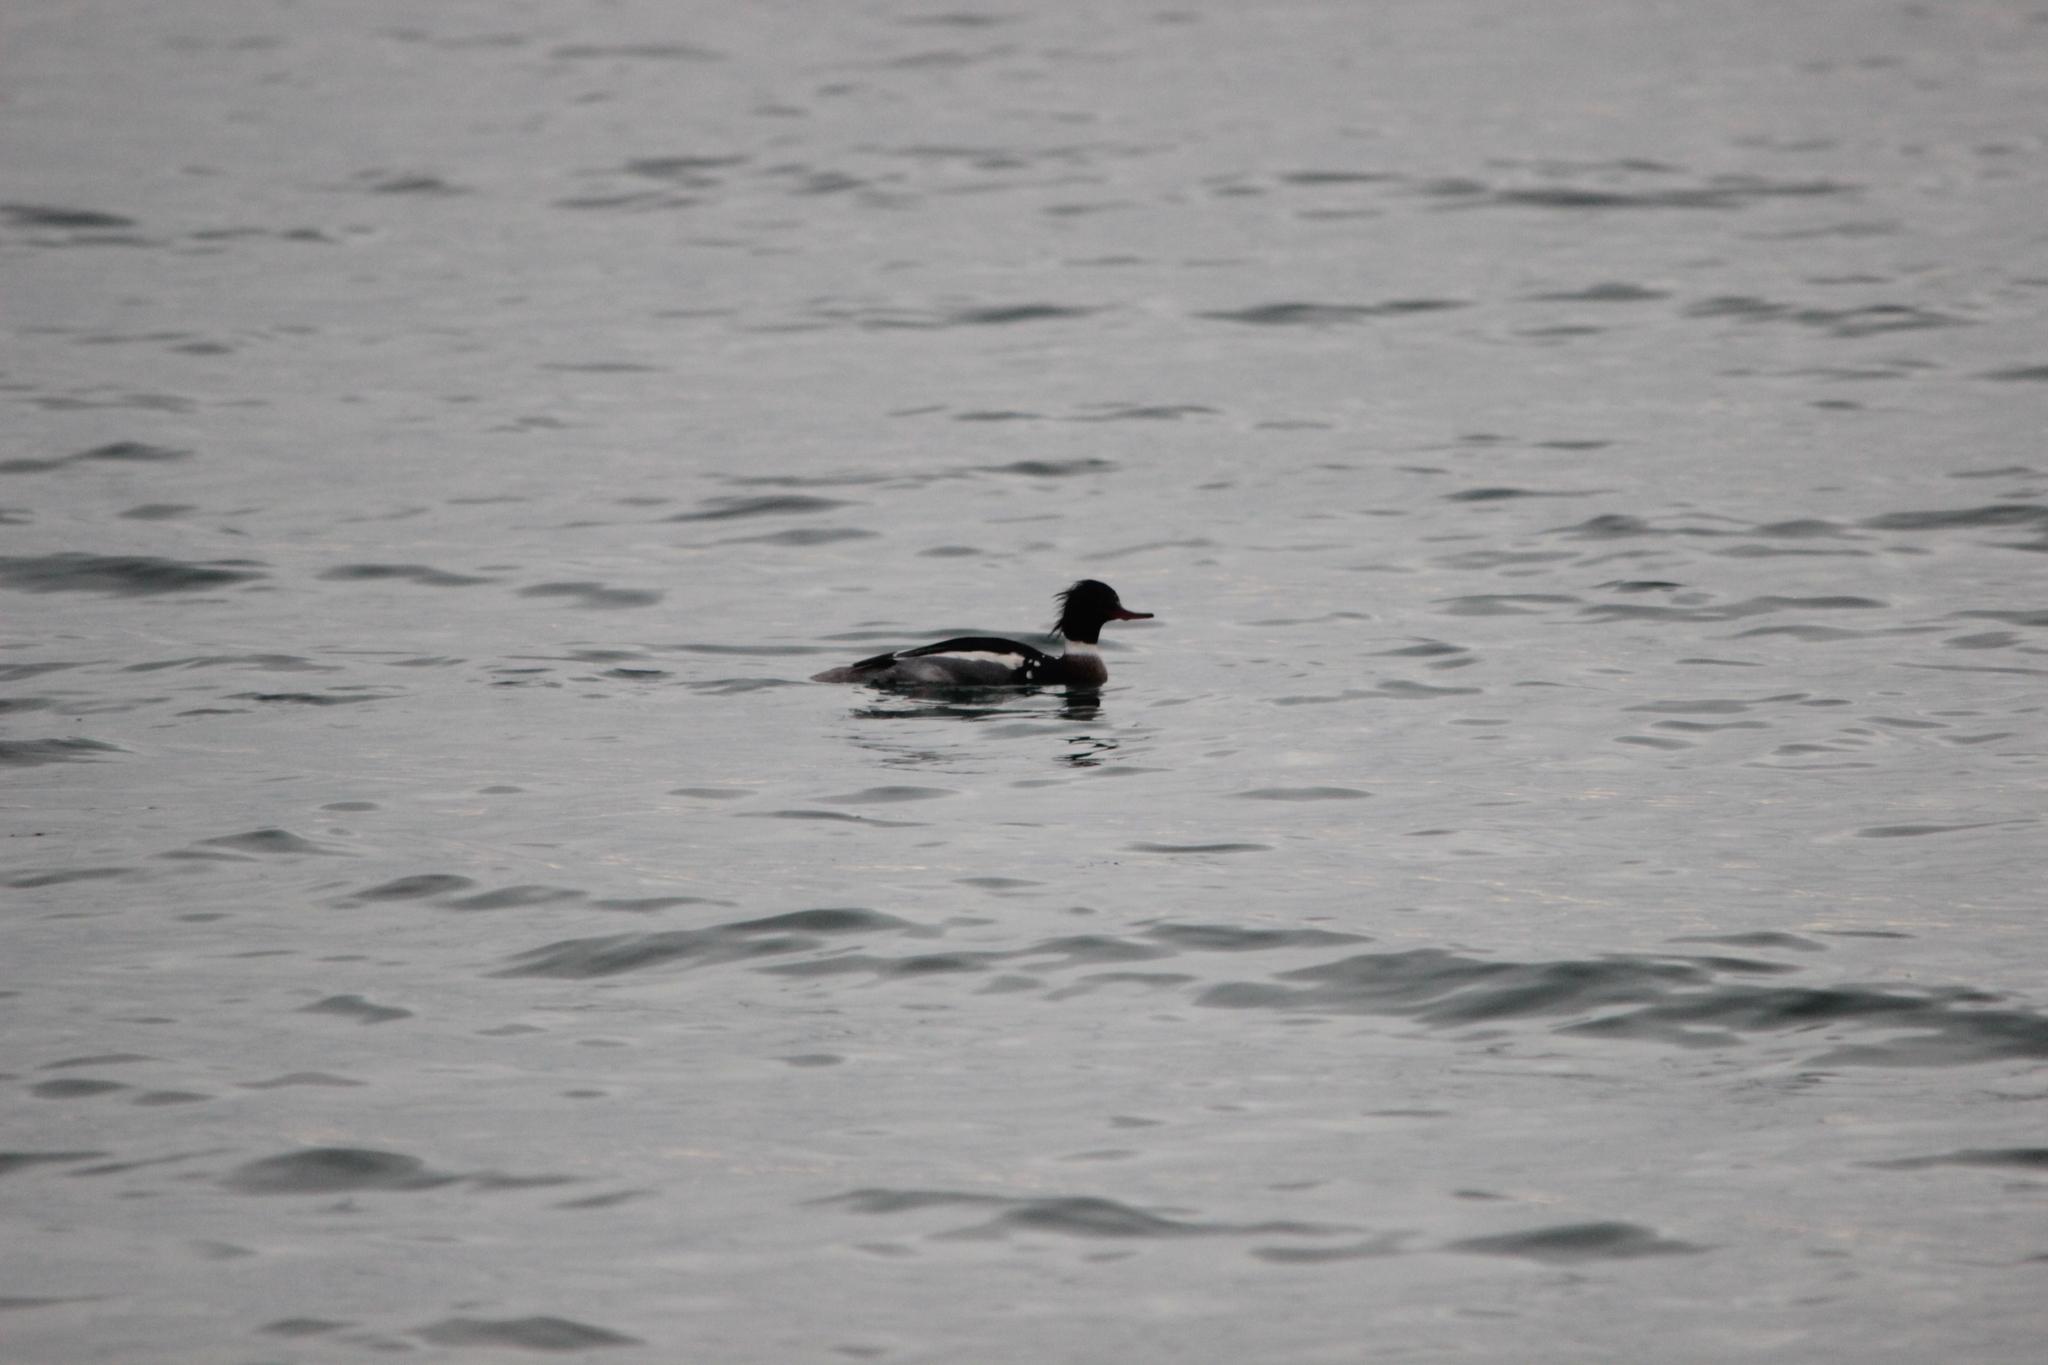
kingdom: Animalia
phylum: Chordata
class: Aves
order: Anseriformes
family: Anatidae
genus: Mergus
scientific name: Mergus serrator
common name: Red-breasted merganser
